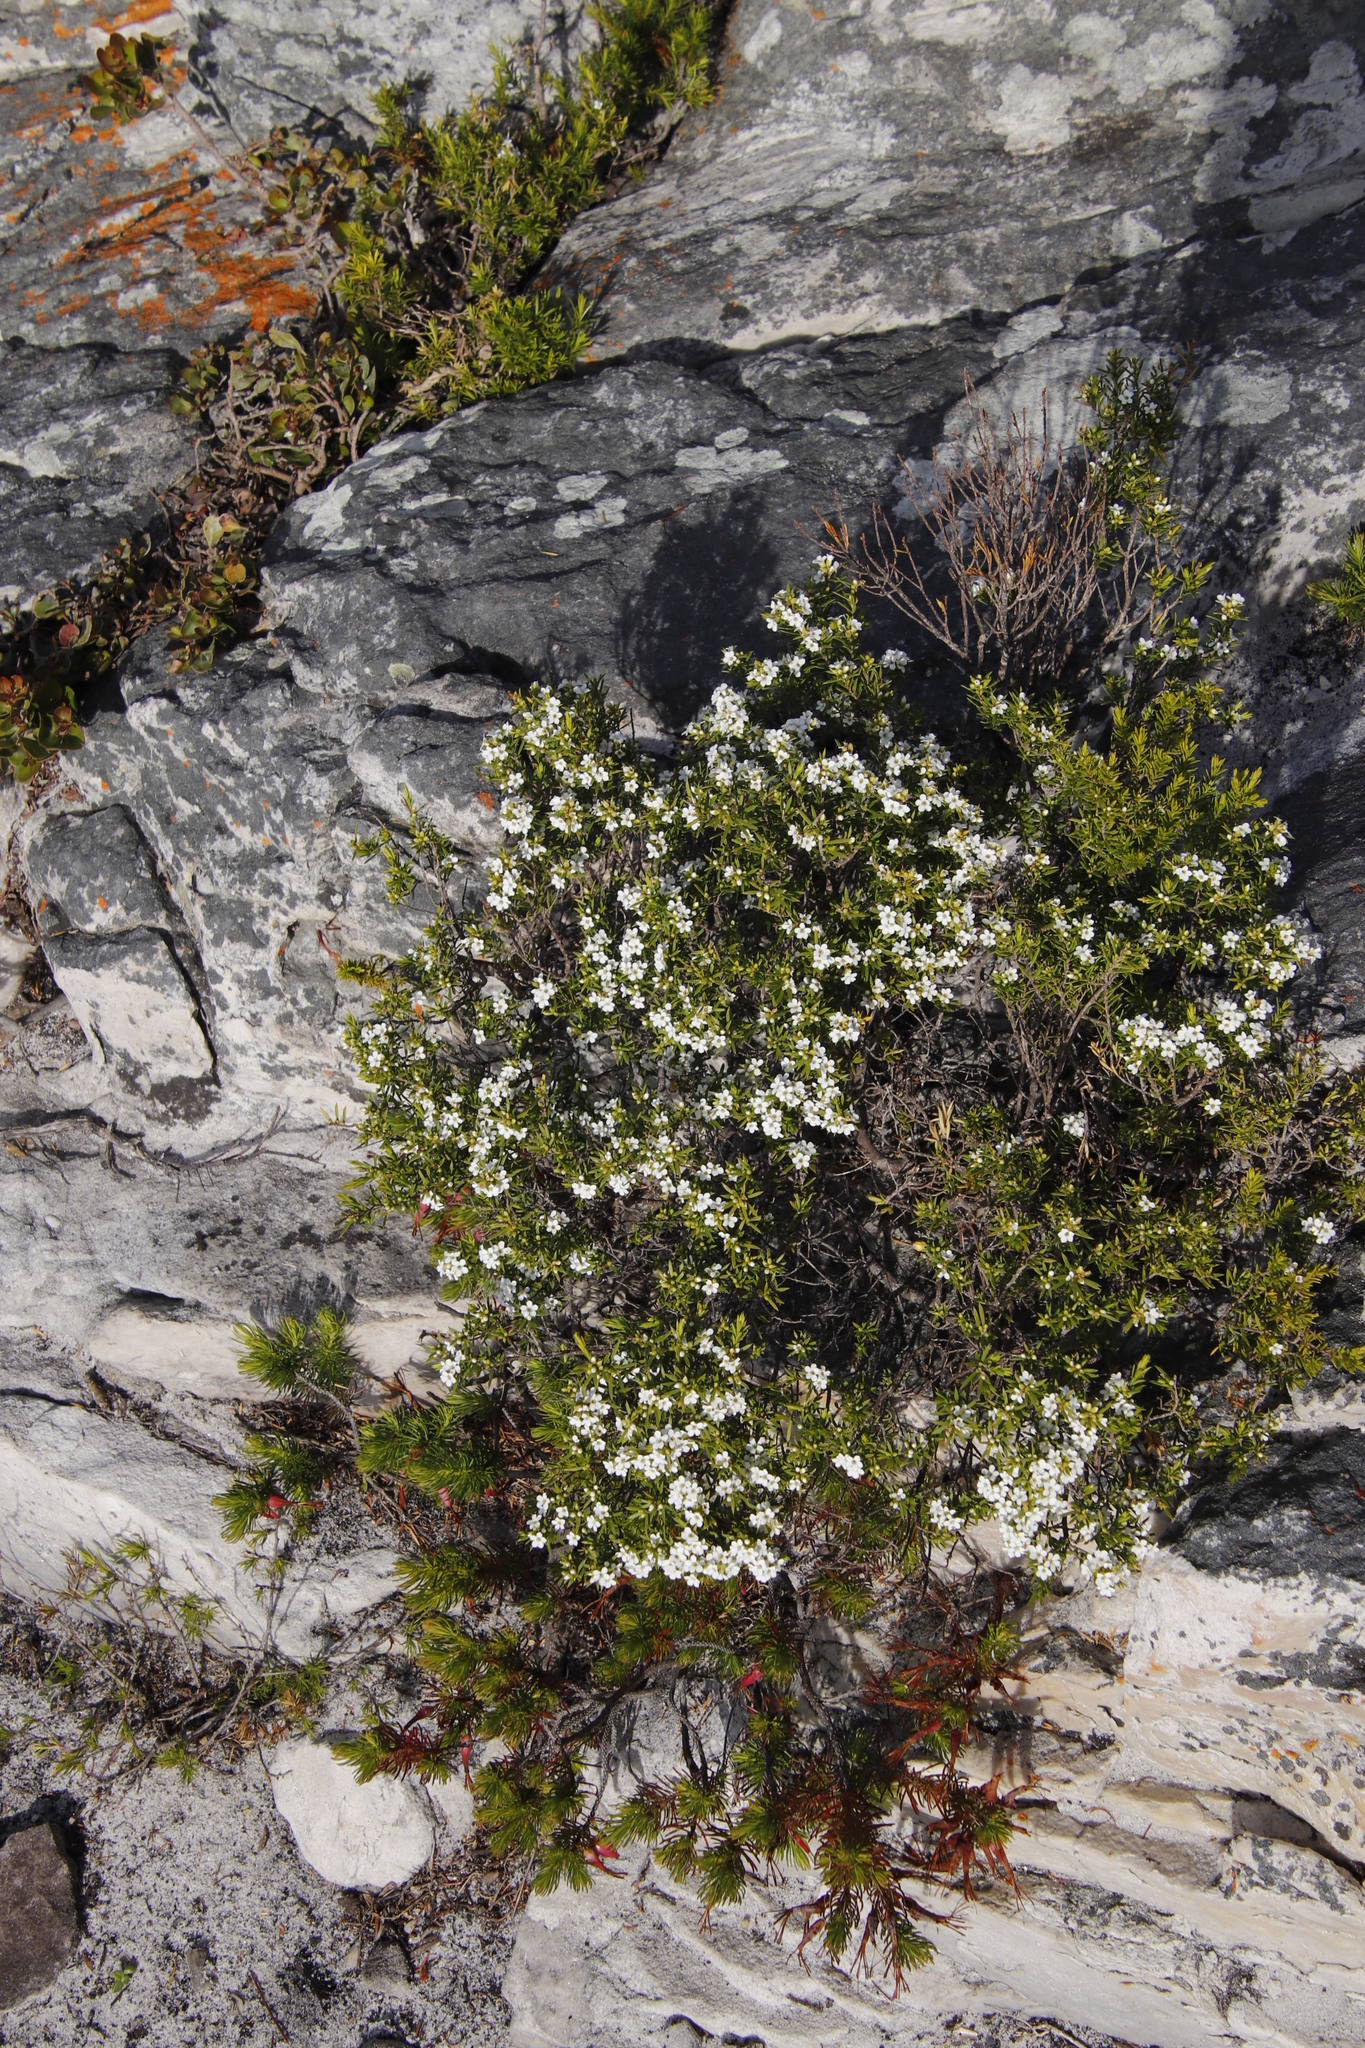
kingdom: Plantae
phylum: Tracheophyta
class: Magnoliopsida
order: Sapindales
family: Rutaceae
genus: Coleonema
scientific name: Coleonema album
